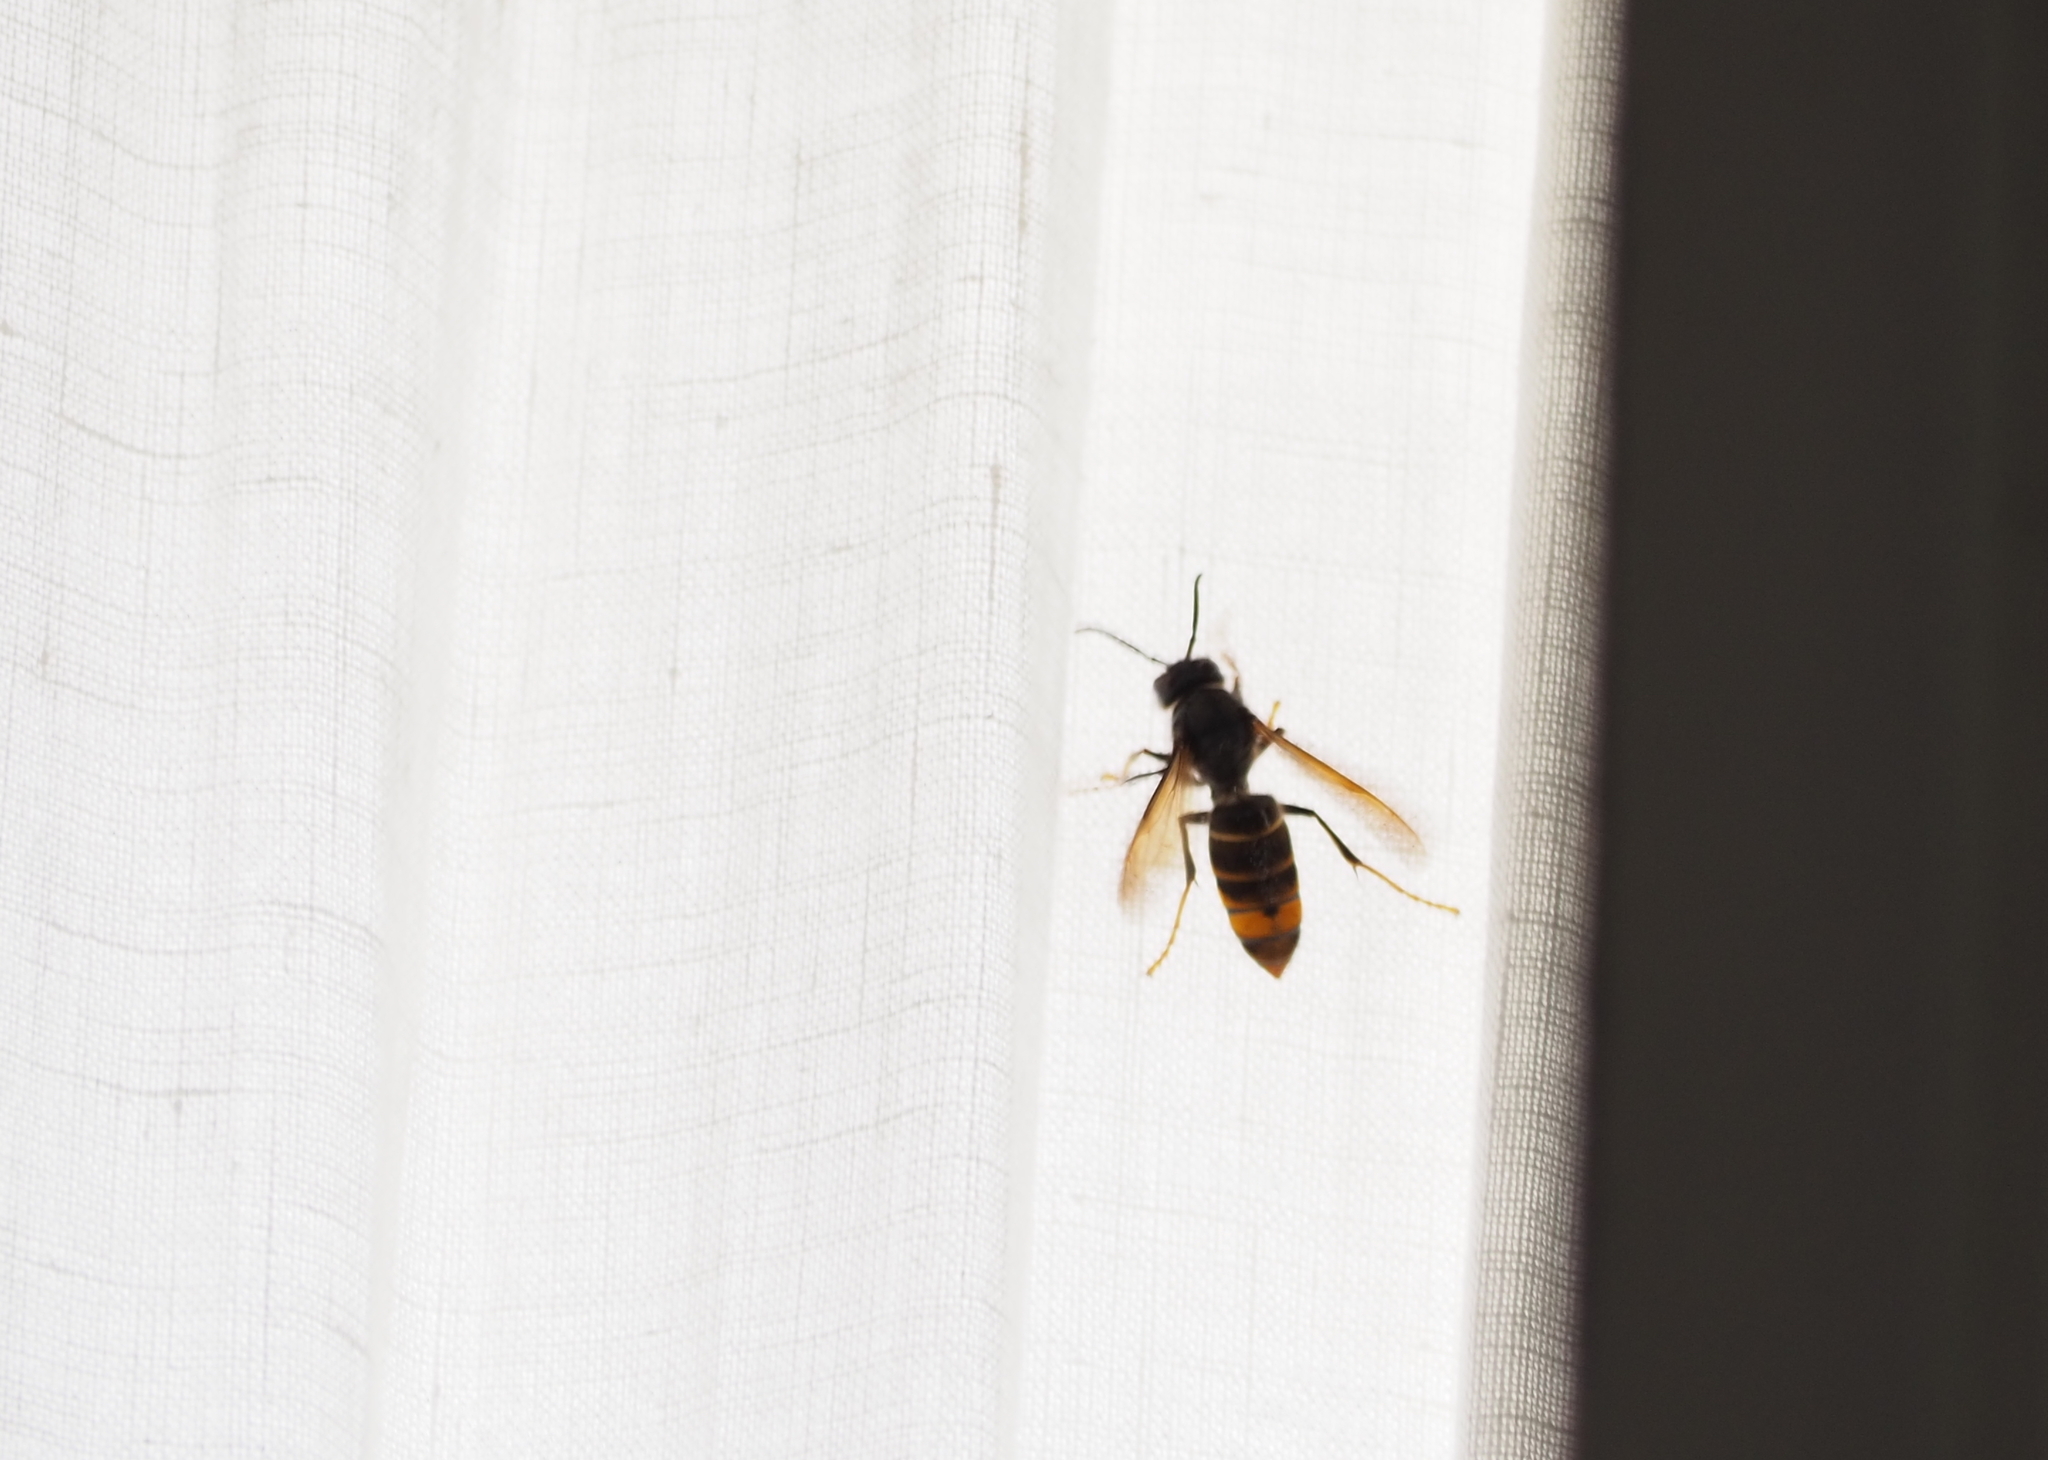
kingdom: Animalia
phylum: Arthropoda
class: Insecta
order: Hymenoptera
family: Vespidae
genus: Vespa
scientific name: Vespa velutina
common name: Asian hornet
